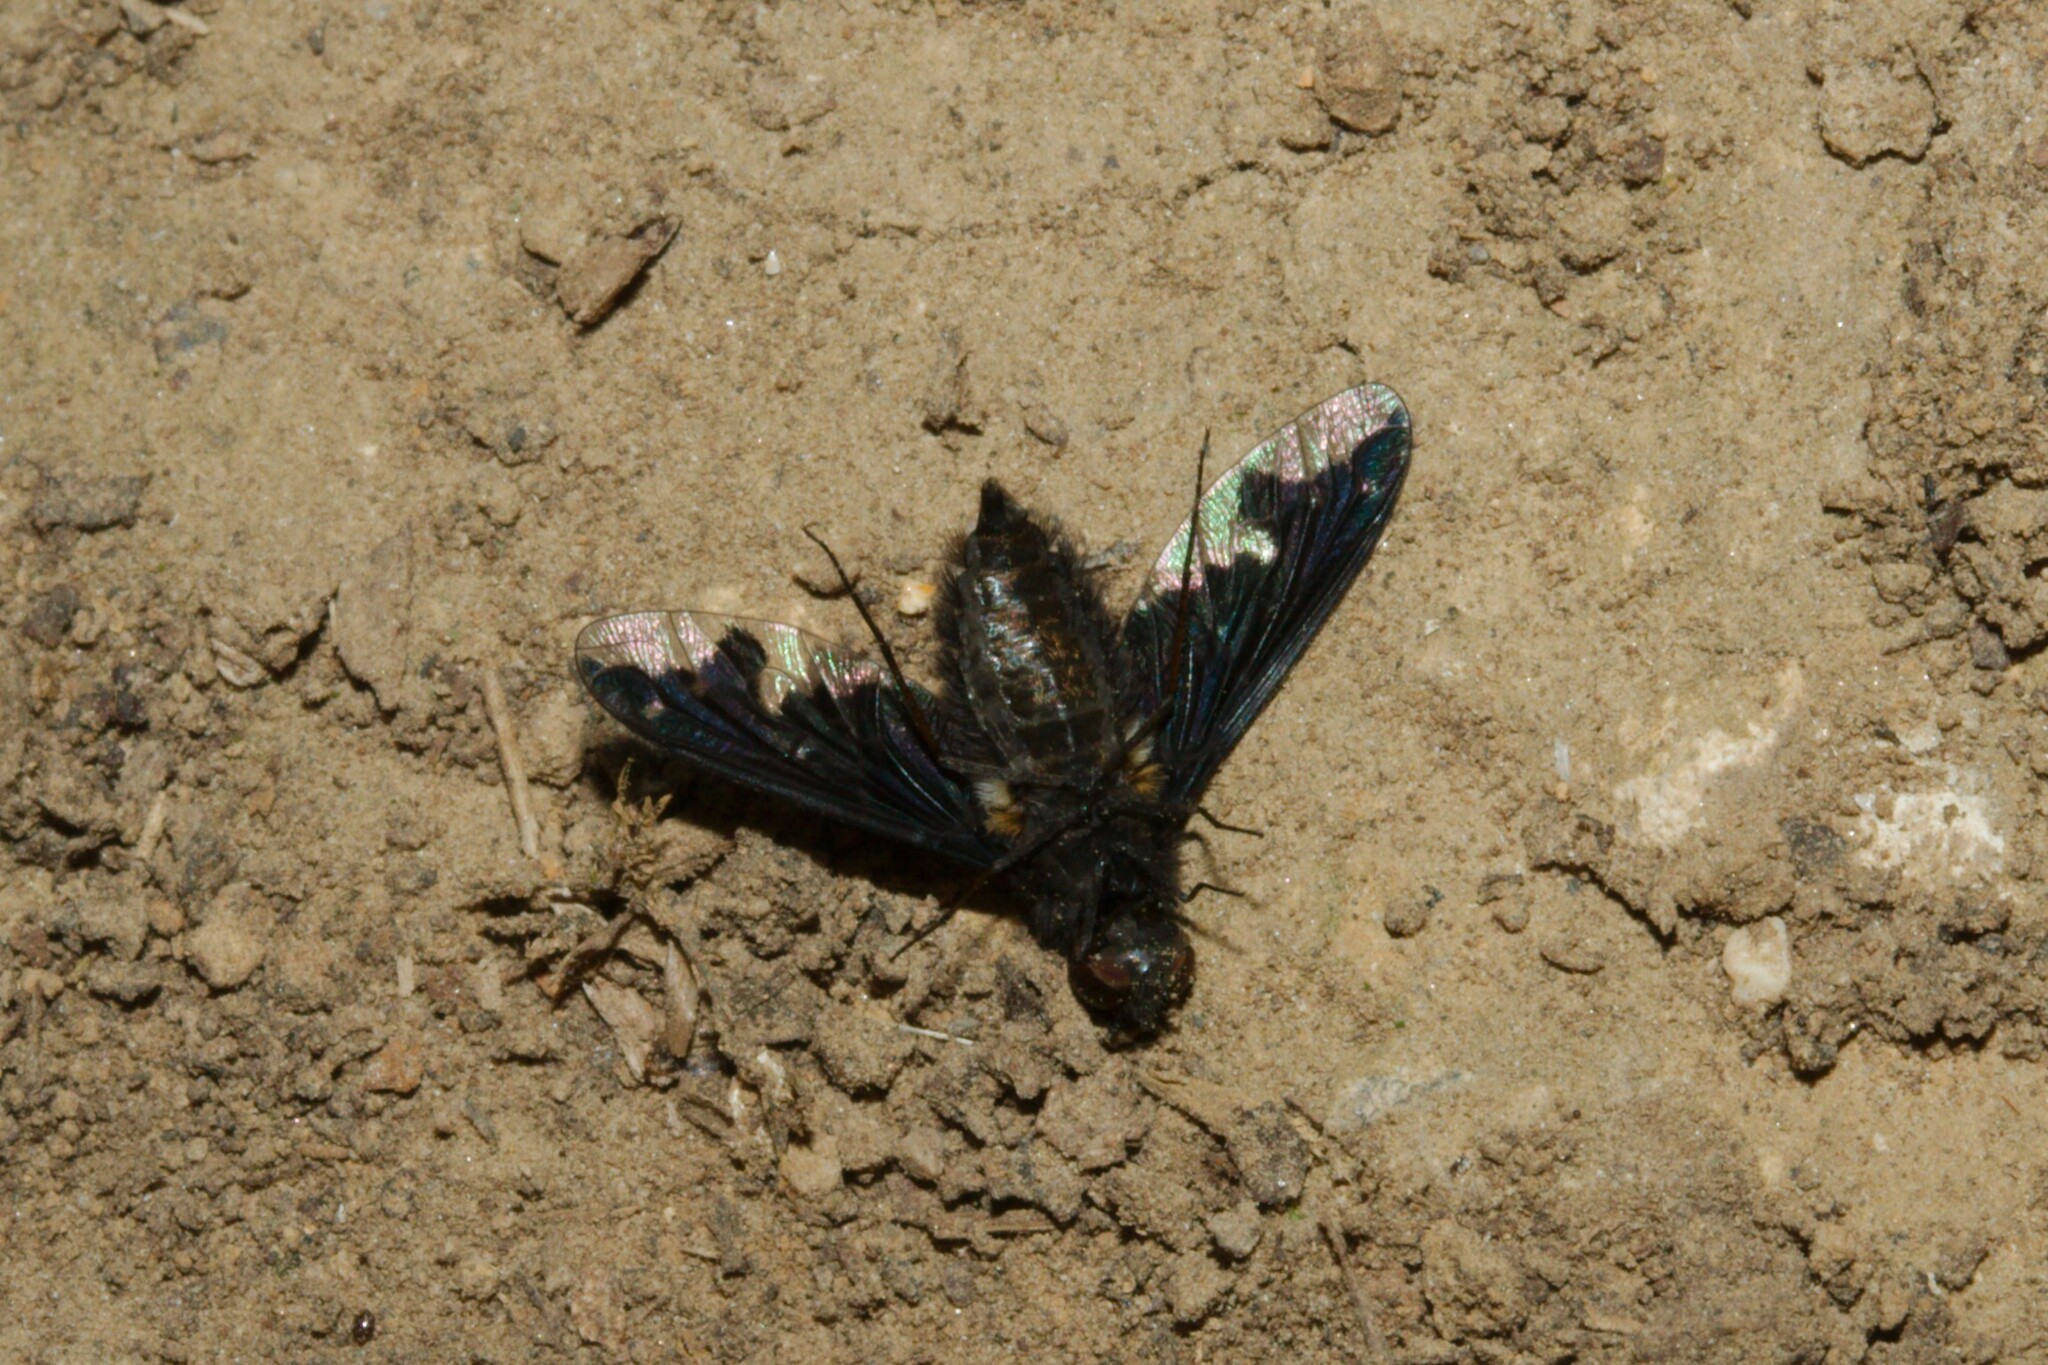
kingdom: Animalia
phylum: Arthropoda
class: Insecta
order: Diptera
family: Bombyliidae
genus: Hemipenthes
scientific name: Hemipenthes maura
